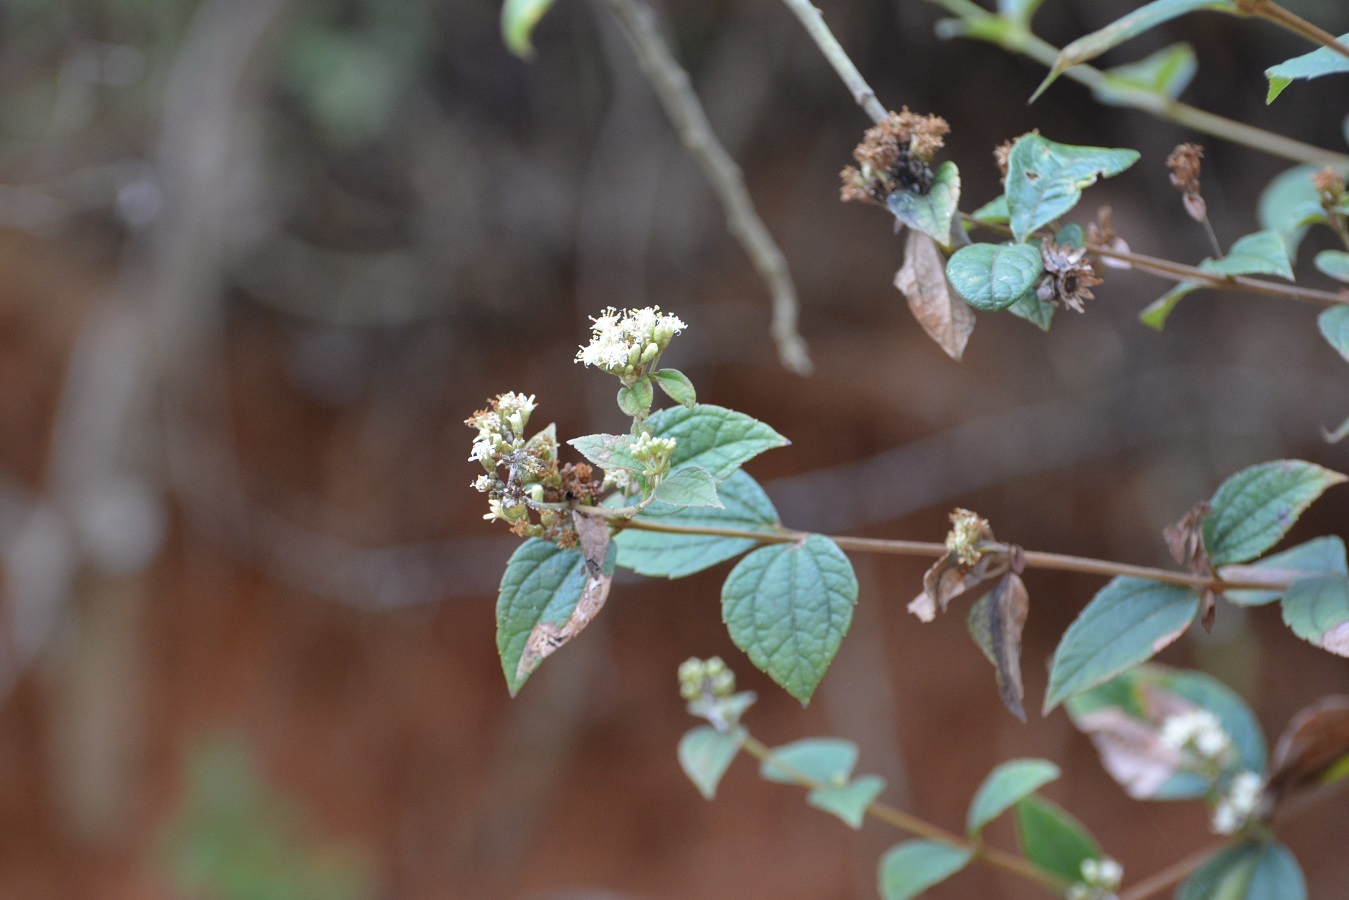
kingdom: Plantae
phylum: Tracheophyta
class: Magnoliopsida
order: Asterales
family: Asteraceae
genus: Calea
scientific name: Calea ternifolia
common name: Mexican calea
